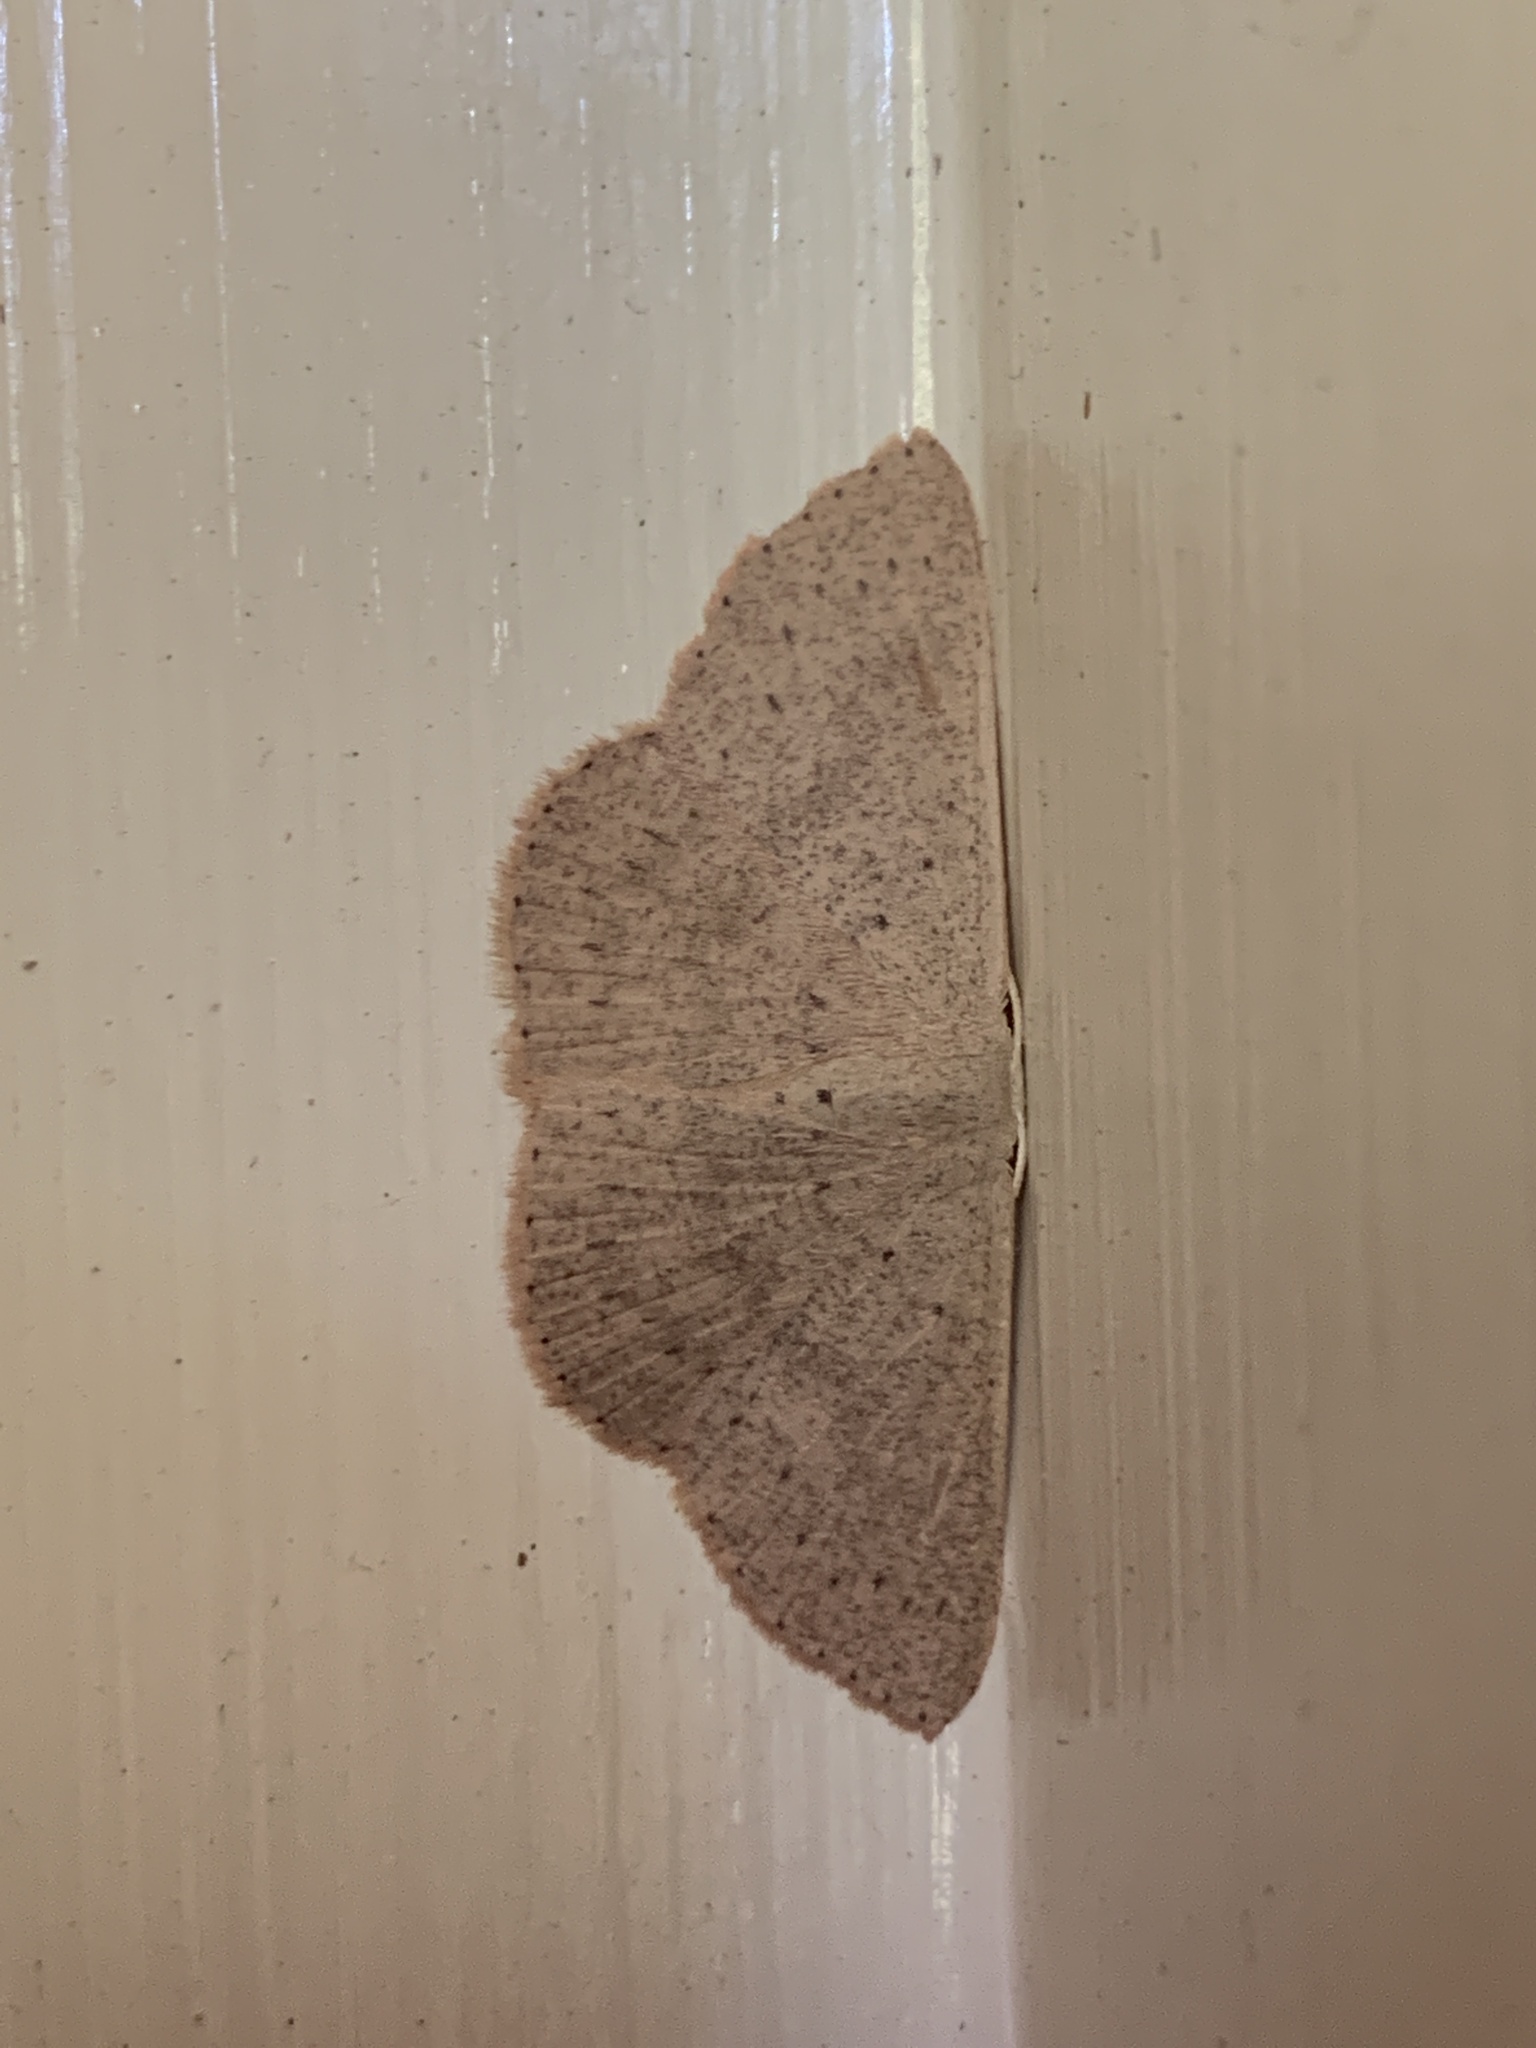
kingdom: Animalia
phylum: Arthropoda
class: Insecta
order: Lepidoptera
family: Geometridae
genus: Cyclophora
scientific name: Cyclophora obstataria
